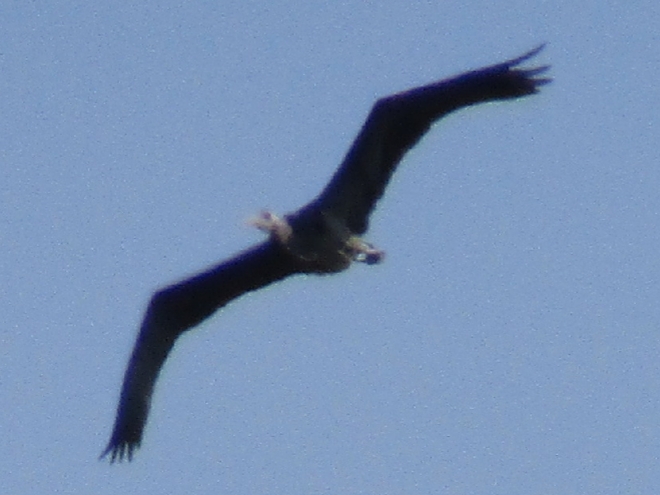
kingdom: Animalia
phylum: Chordata
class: Aves
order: Pelecaniformes
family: Ardeidae
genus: Ardea
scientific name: Ardea herodias
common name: Great blue heron
